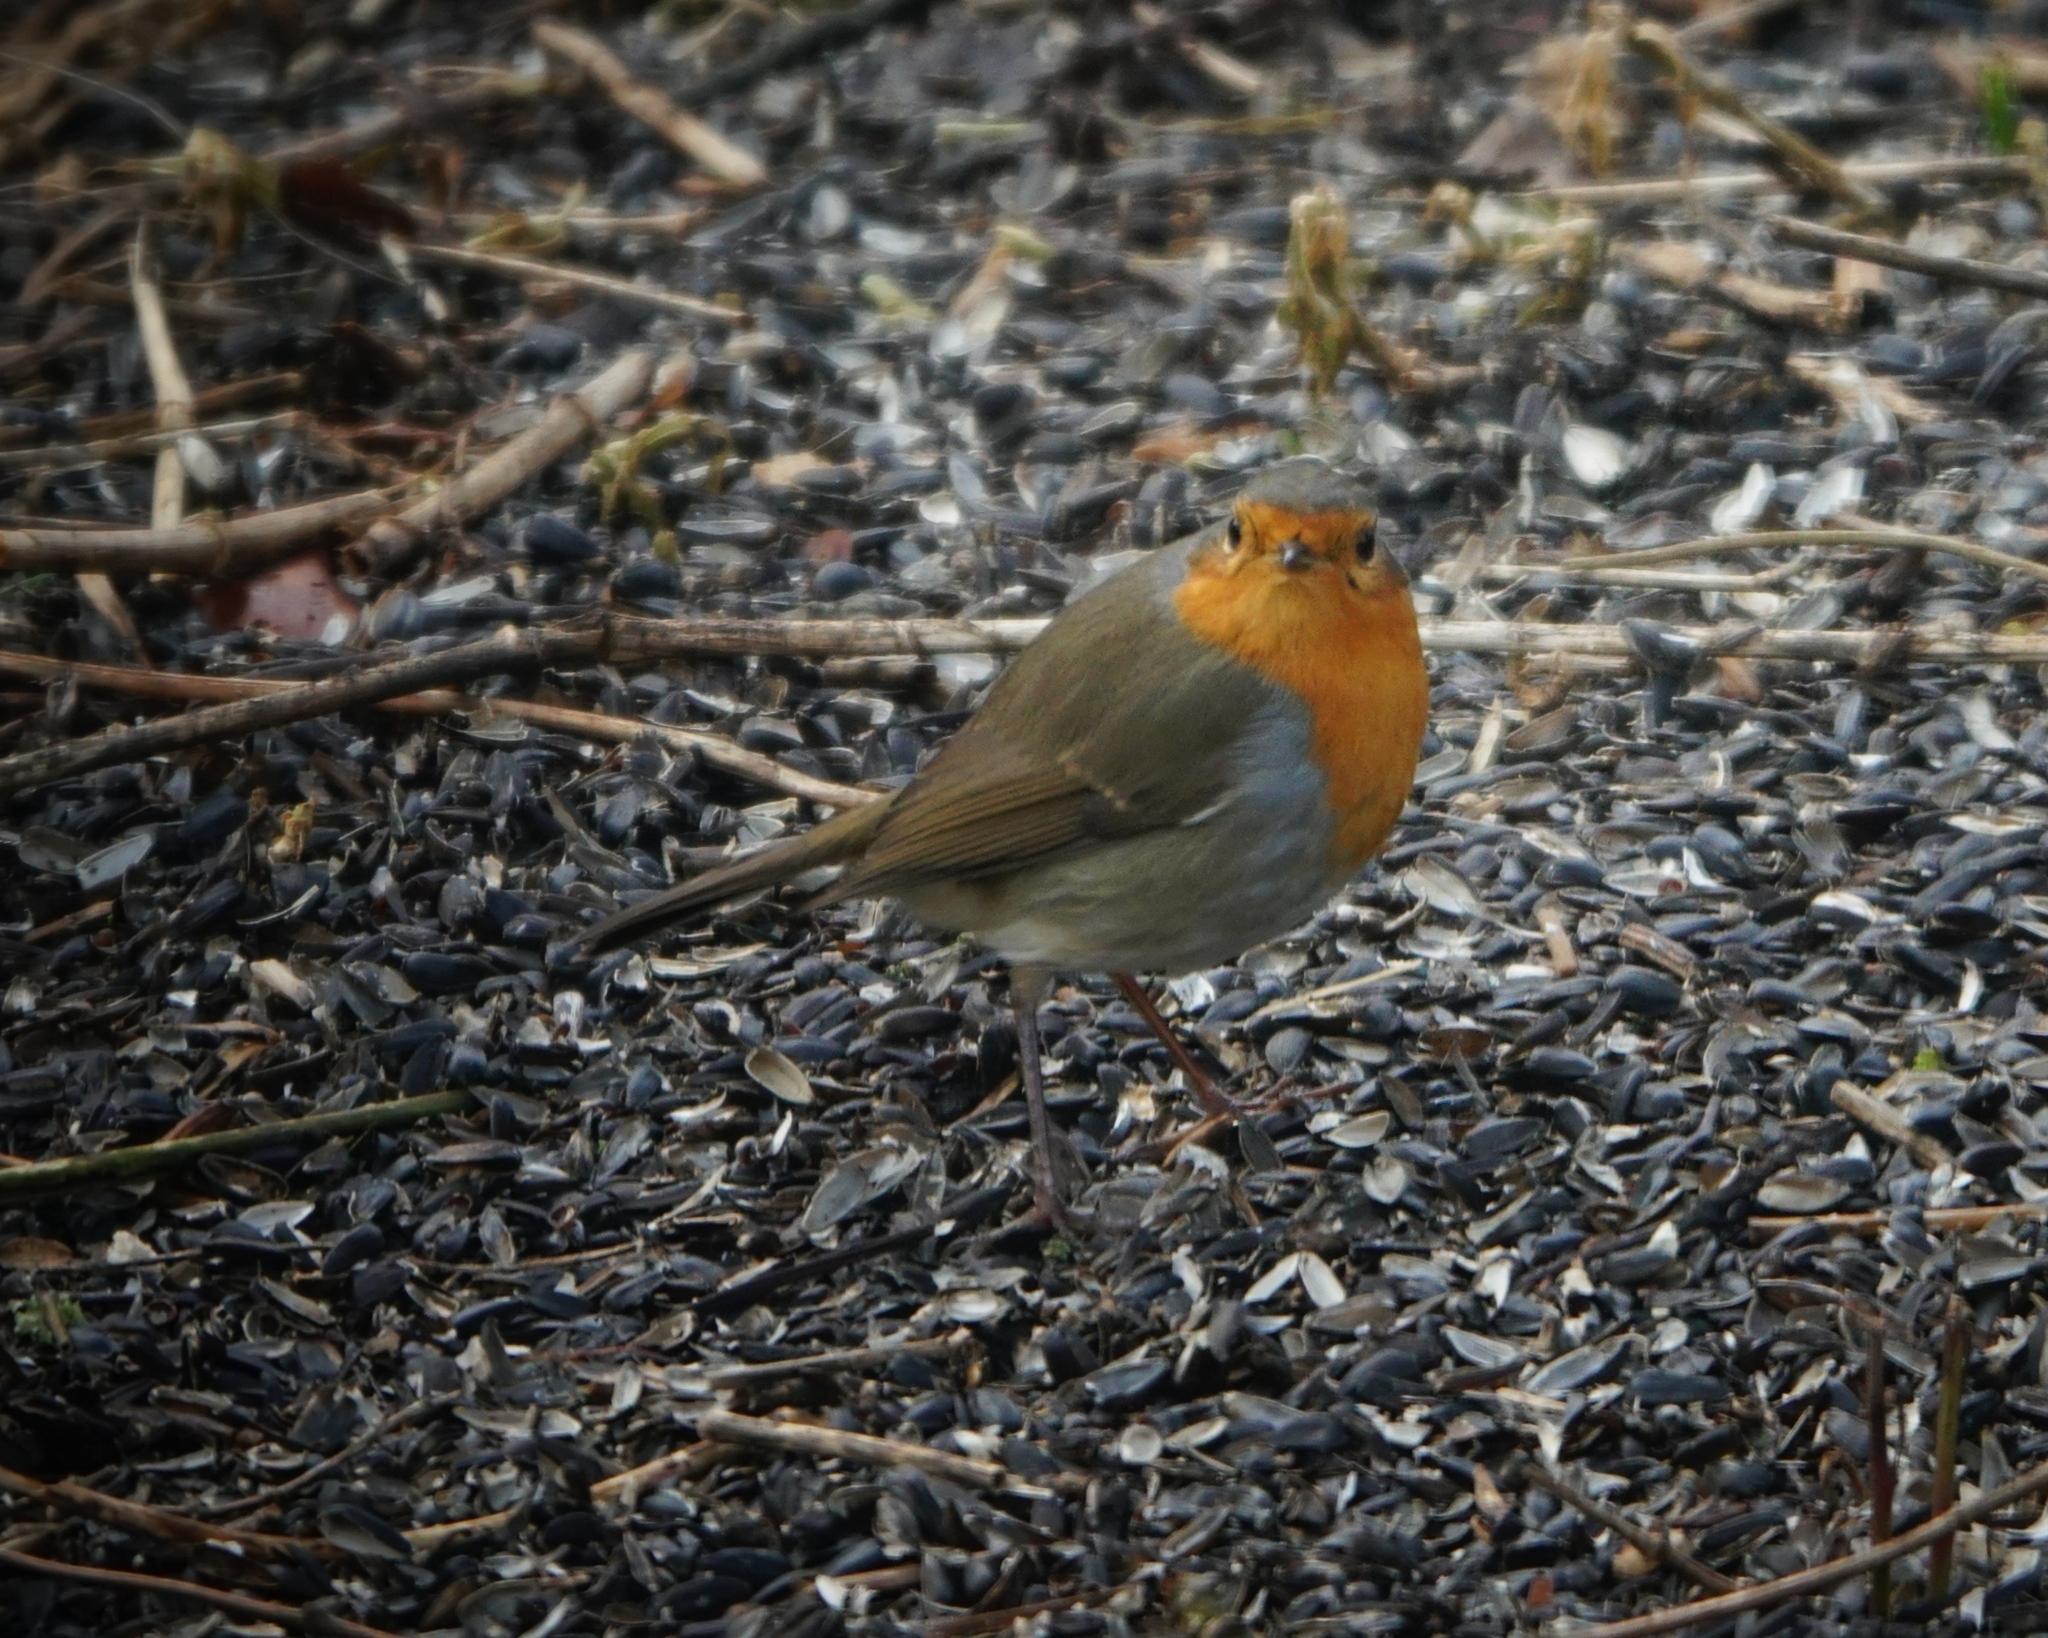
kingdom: Animalia
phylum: Chordata
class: Aves
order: Passeriformes
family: Muscicapidae
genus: Erithacus
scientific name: Erithacus rubecula
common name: European robin
